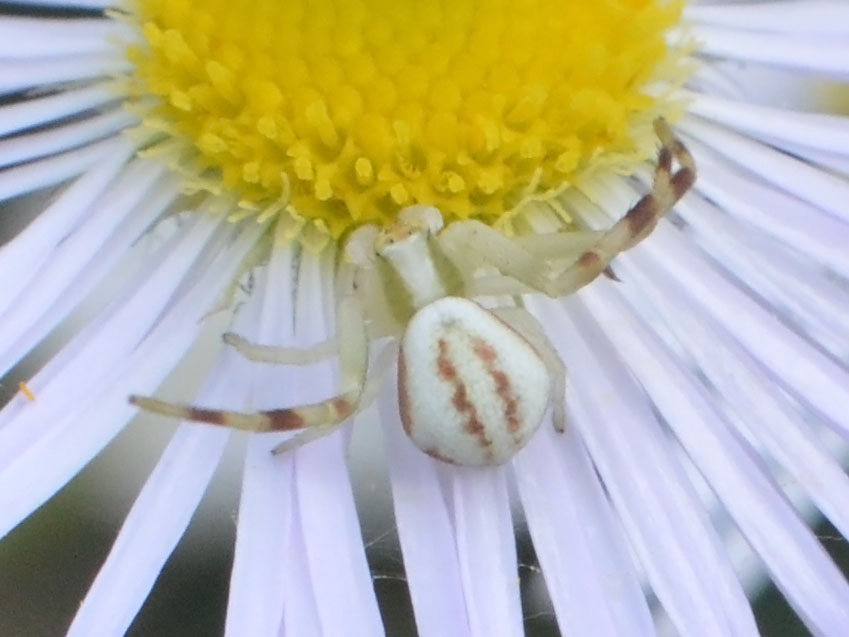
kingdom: Animalia
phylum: Arthropoda
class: Arachnida
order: Araneae
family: Thomisidae
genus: Misumena
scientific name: Misumena vatia
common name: Goldenrod crab spider
